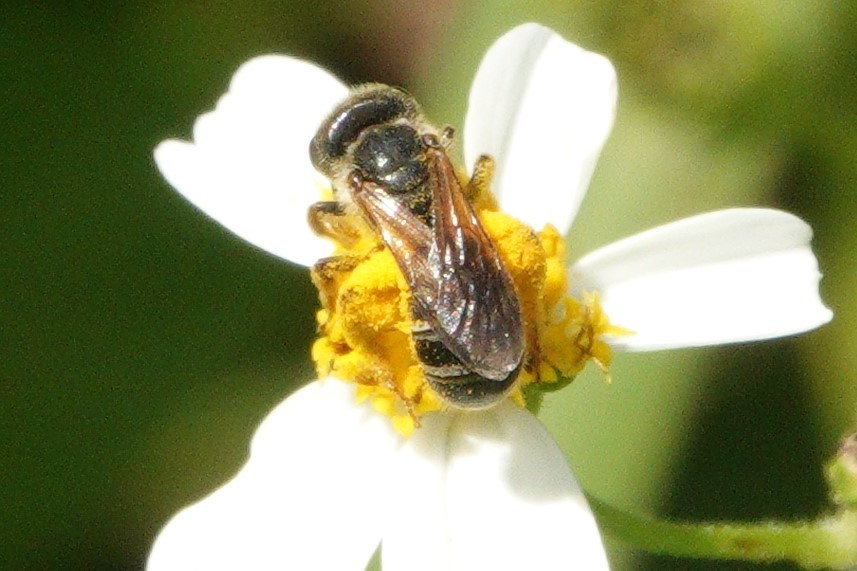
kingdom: Animalia
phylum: Arthropoda
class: Insecta
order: Hymenoptera
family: Halictidae
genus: Halictus
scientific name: Halictus poeyi
